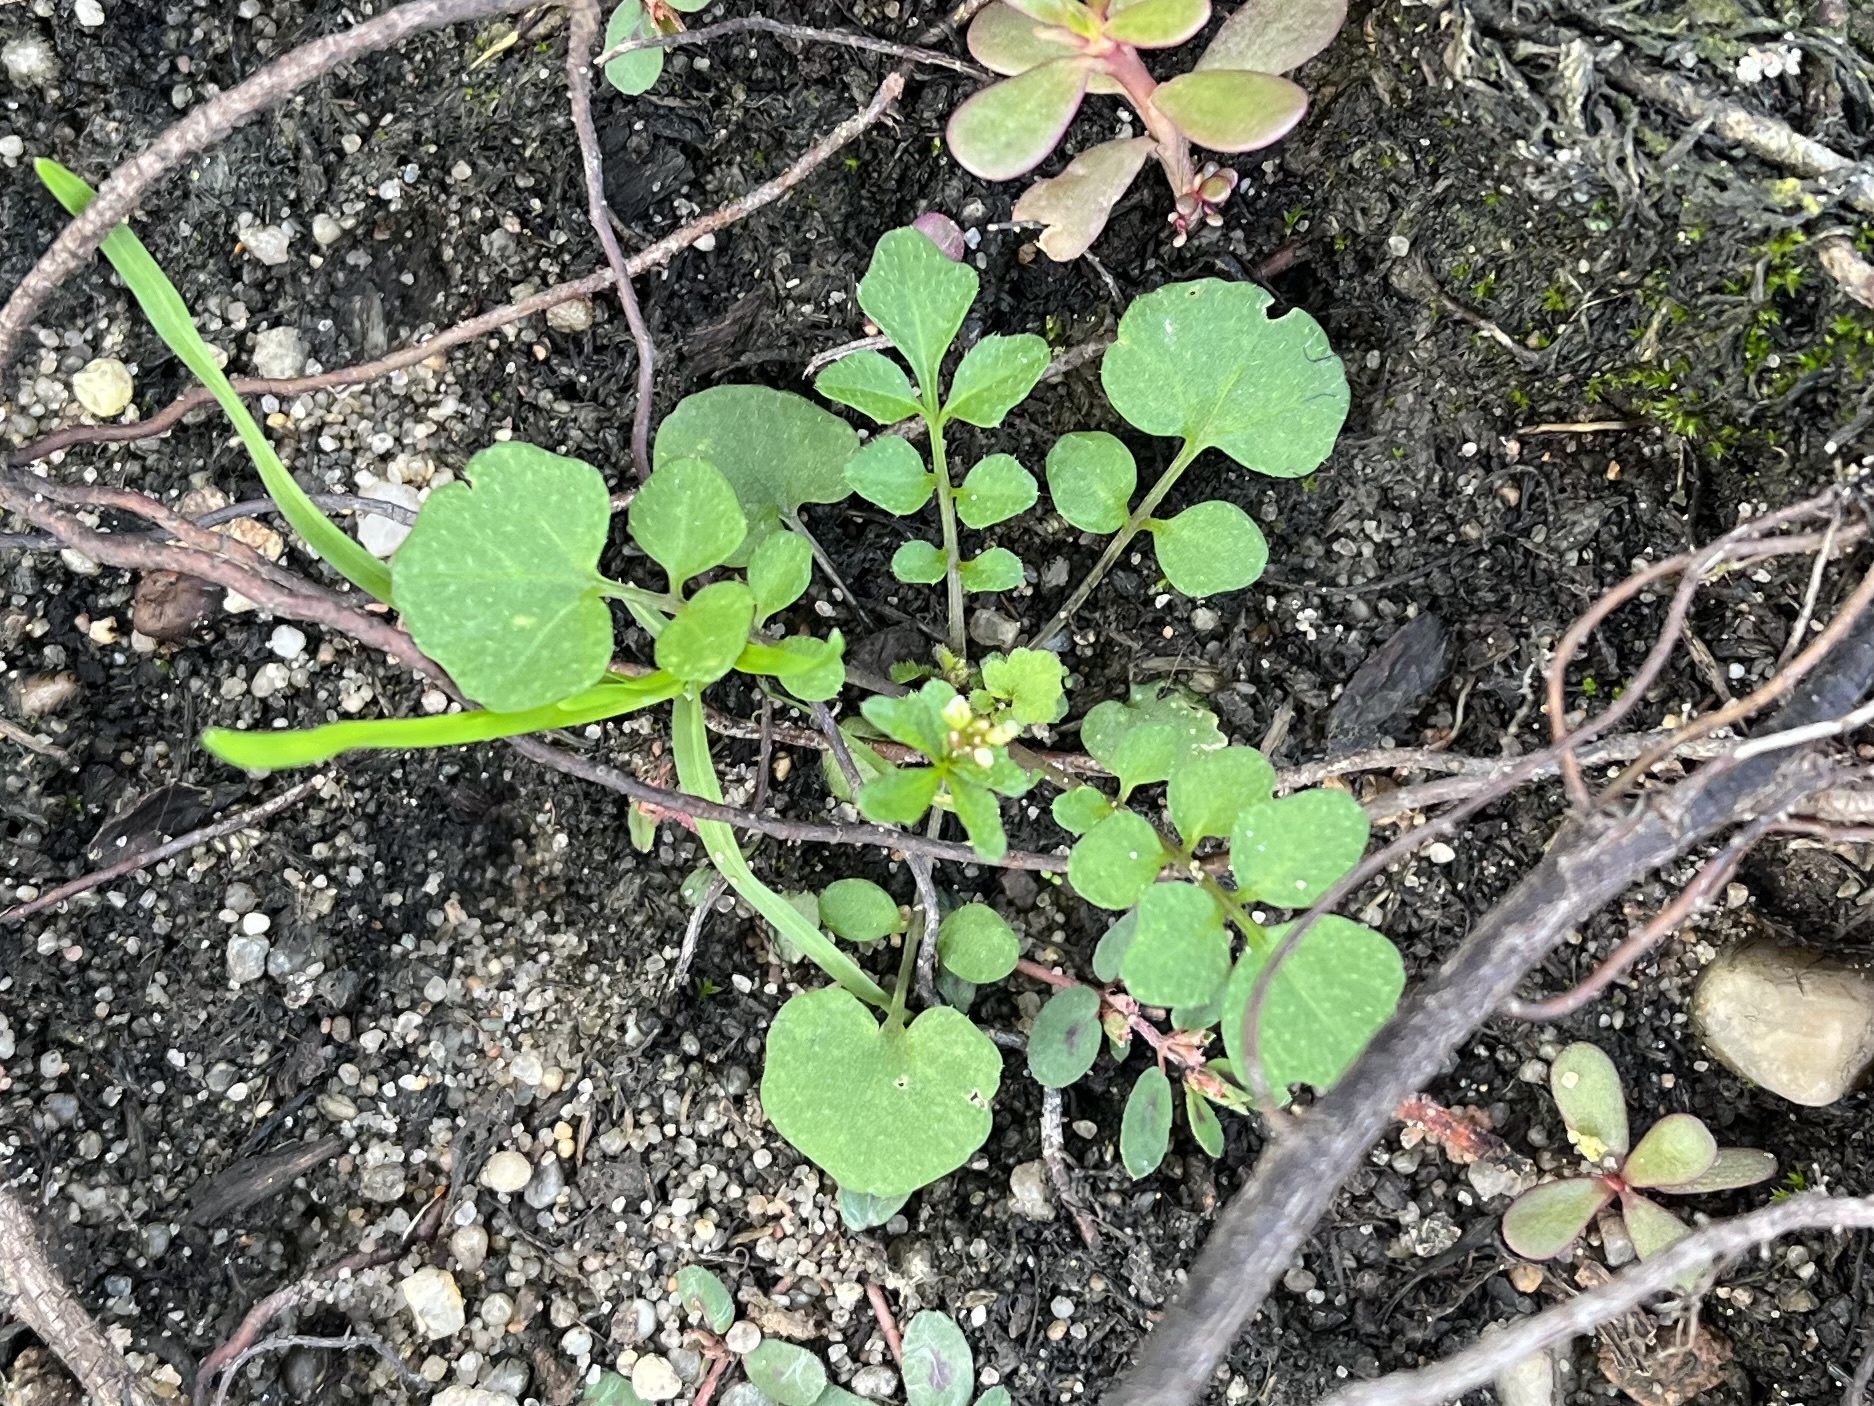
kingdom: Plantae
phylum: Tracheophyta
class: Magnoliopsida
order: Brassicales
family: Brassicaceae
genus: Cardamine
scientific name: Cardamine hirsuta
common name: Hairy bittercress
